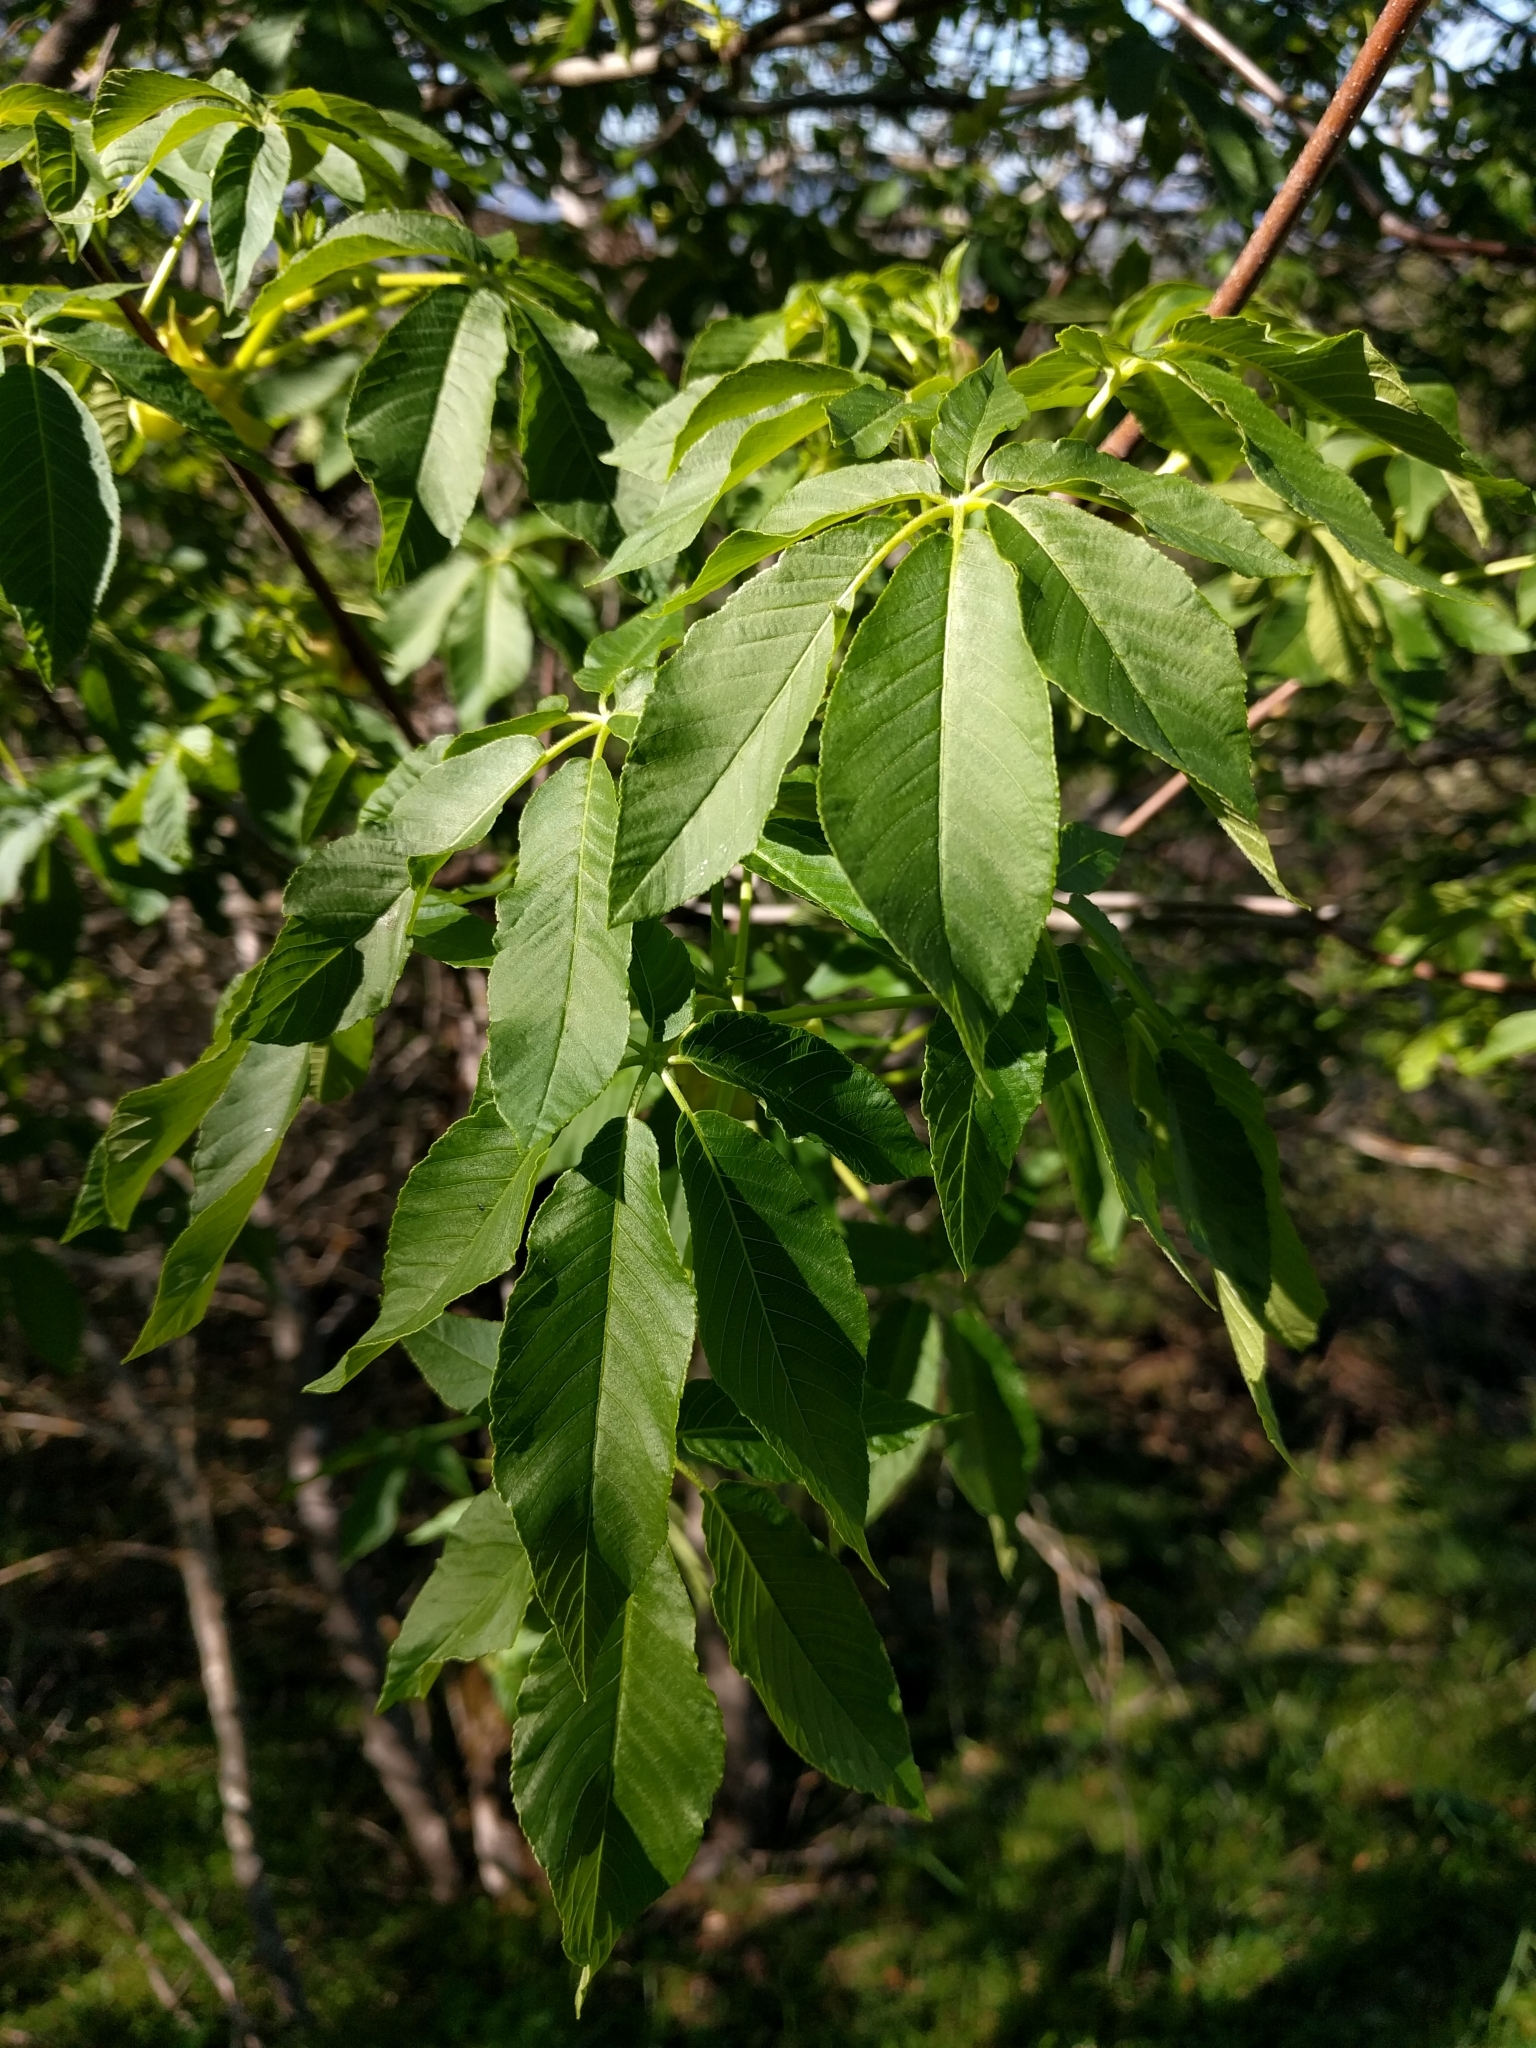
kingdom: Plantae
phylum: Tracheophyta
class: Magnoliopsida
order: Sapindales
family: Sapindaceae
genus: Aesculus
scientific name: Aesculus californica
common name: California buckeye
